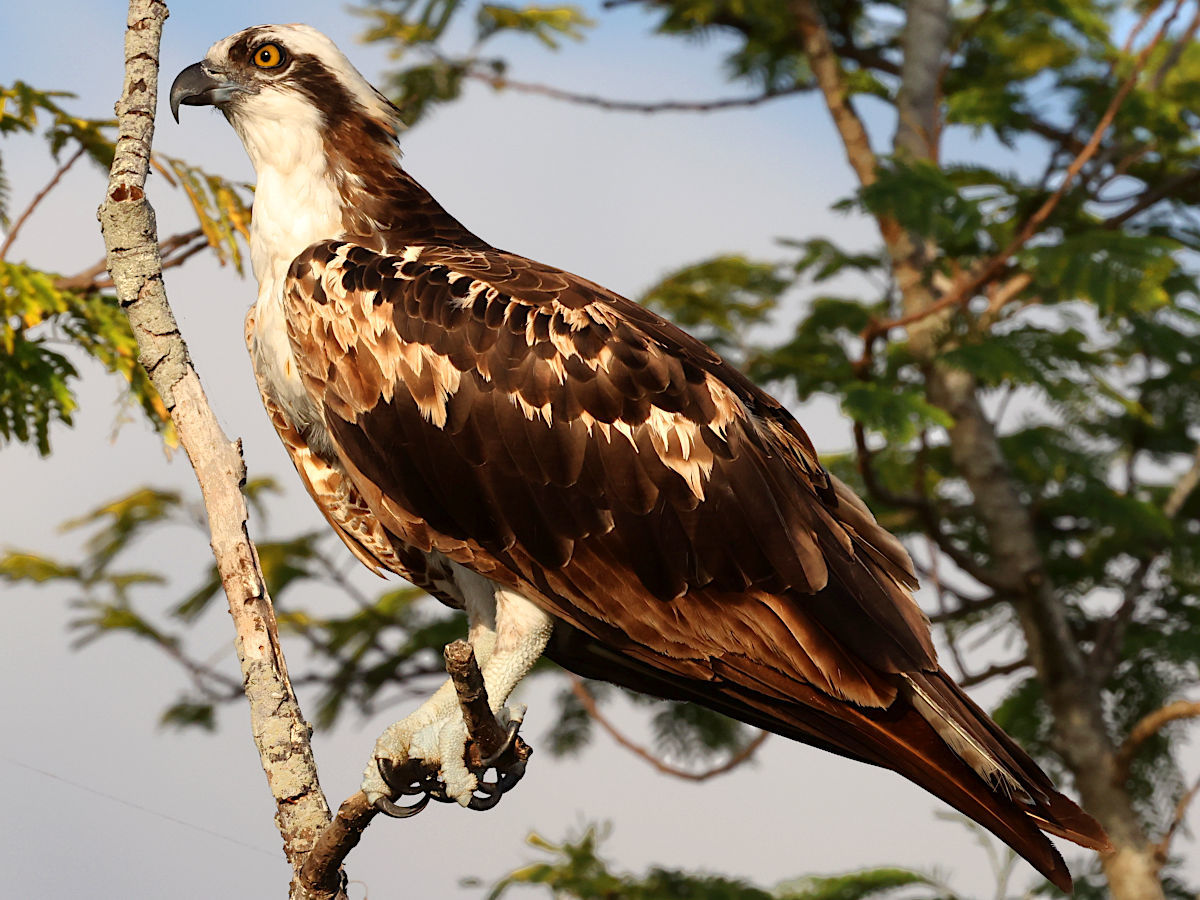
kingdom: Animalia
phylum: Chordata
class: Aves
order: Accipitriformes
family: Pandionidae
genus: Pandion
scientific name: Pandion haliaetus
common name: Osprey
